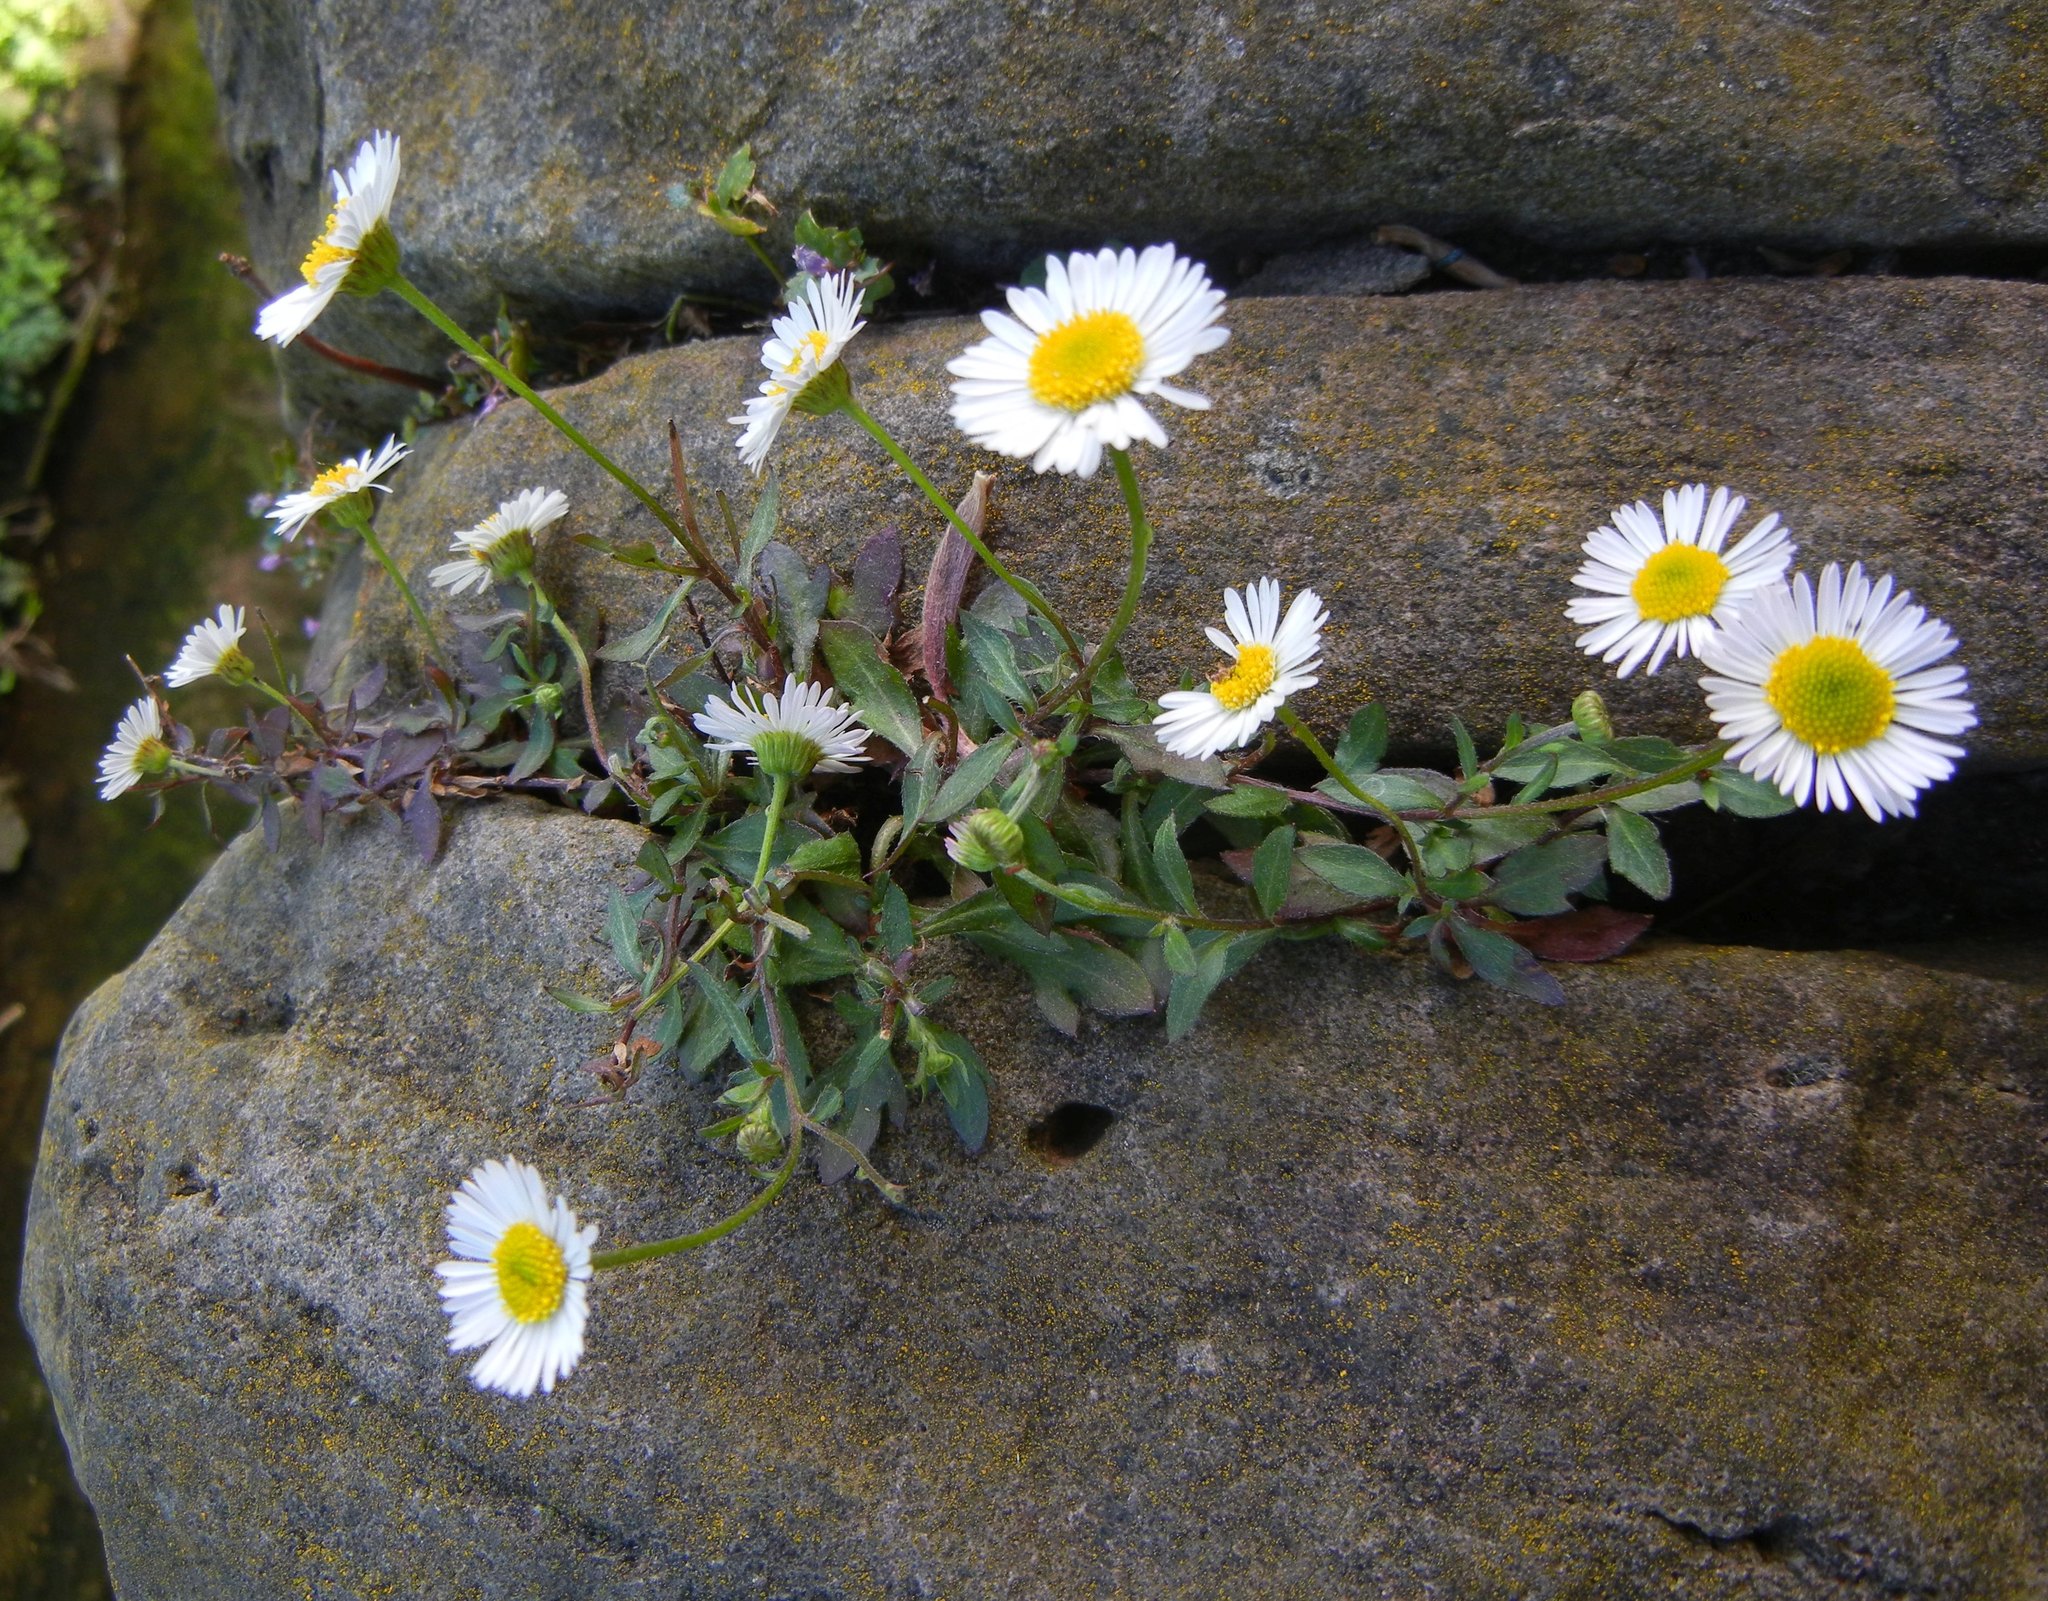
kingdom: Plantae
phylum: Tracheophyta
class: Magnoliopsida
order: Asterales
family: Asteraceae
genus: Erigeron
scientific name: Erigeron karvinskianus
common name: Mexican fleabane
